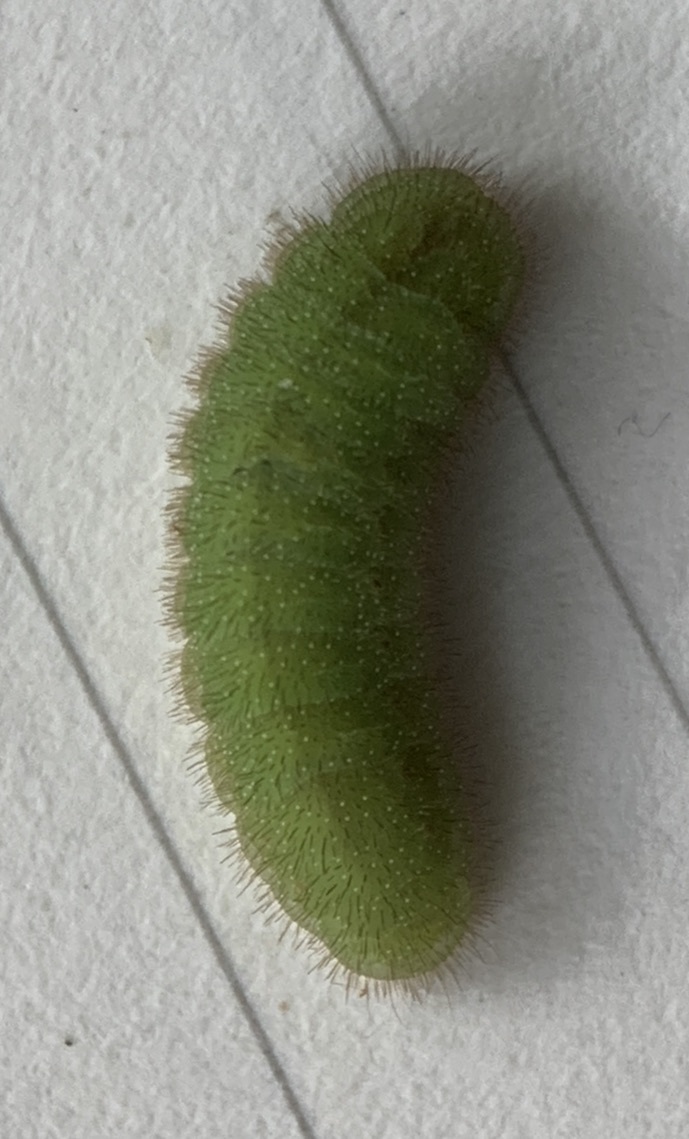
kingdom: Animalia
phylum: Arthropoda
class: Insecta
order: Lepidoptera
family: Lycaenidae
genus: Lycaena
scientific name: Lycaena hypophlaeas
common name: American copper
